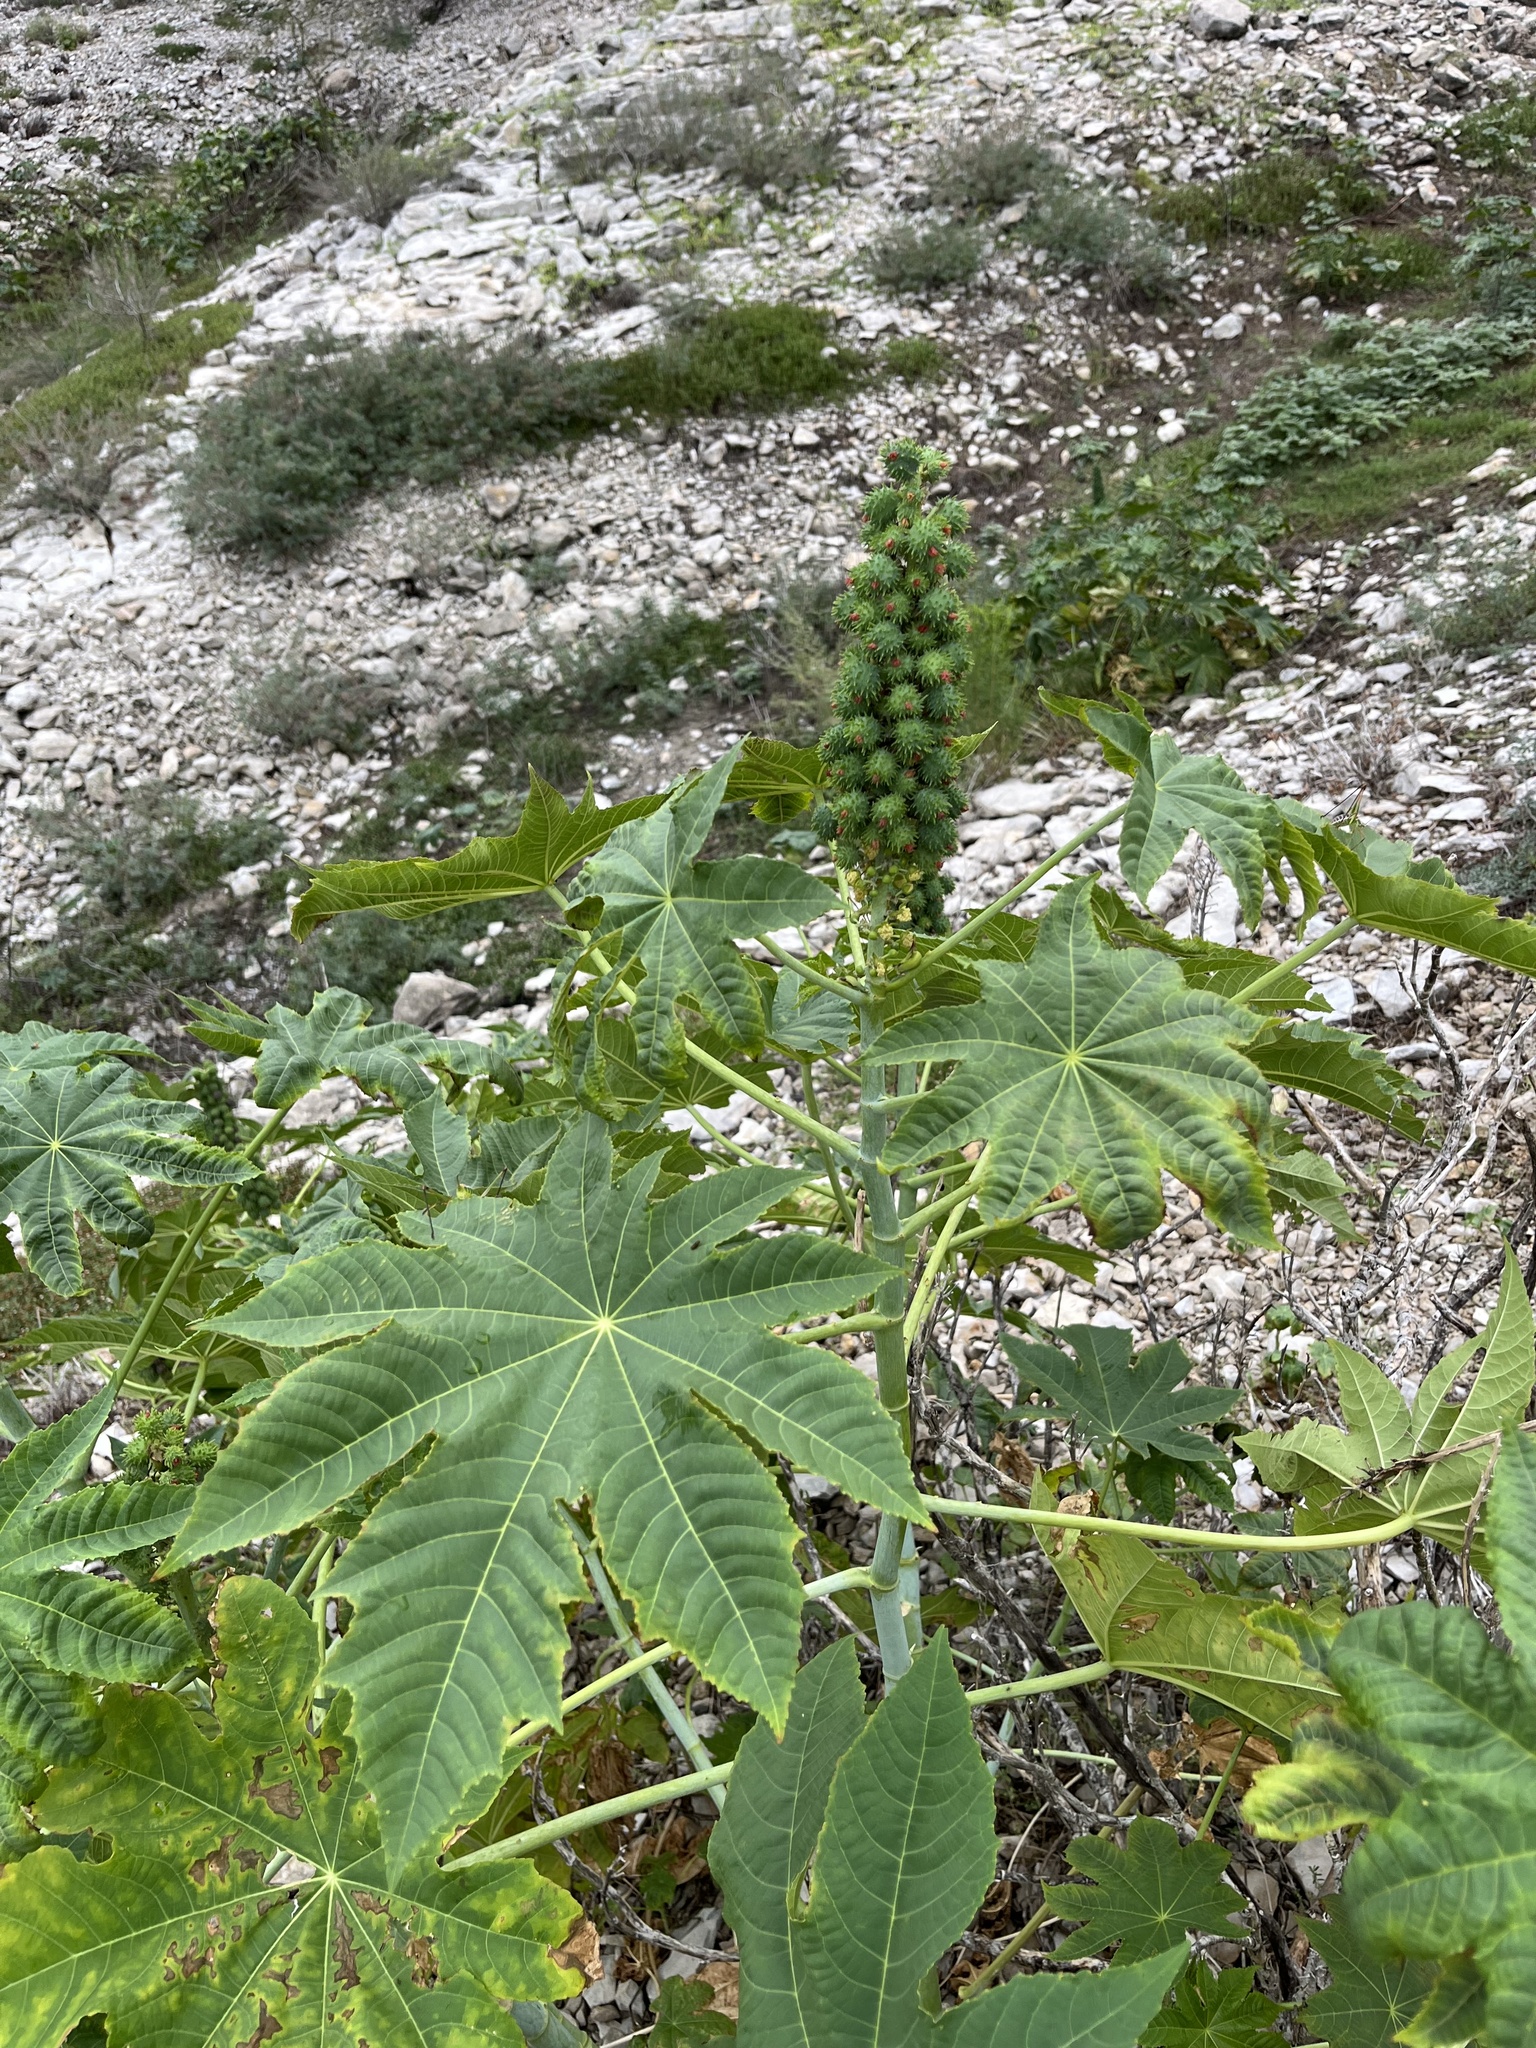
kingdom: Plantae
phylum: Tracheophyta
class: Magnoliopsida
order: Malpighiales
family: Euphorbiaceae
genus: Ricinus
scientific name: Ricinus communis
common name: Castor-oil-plant
